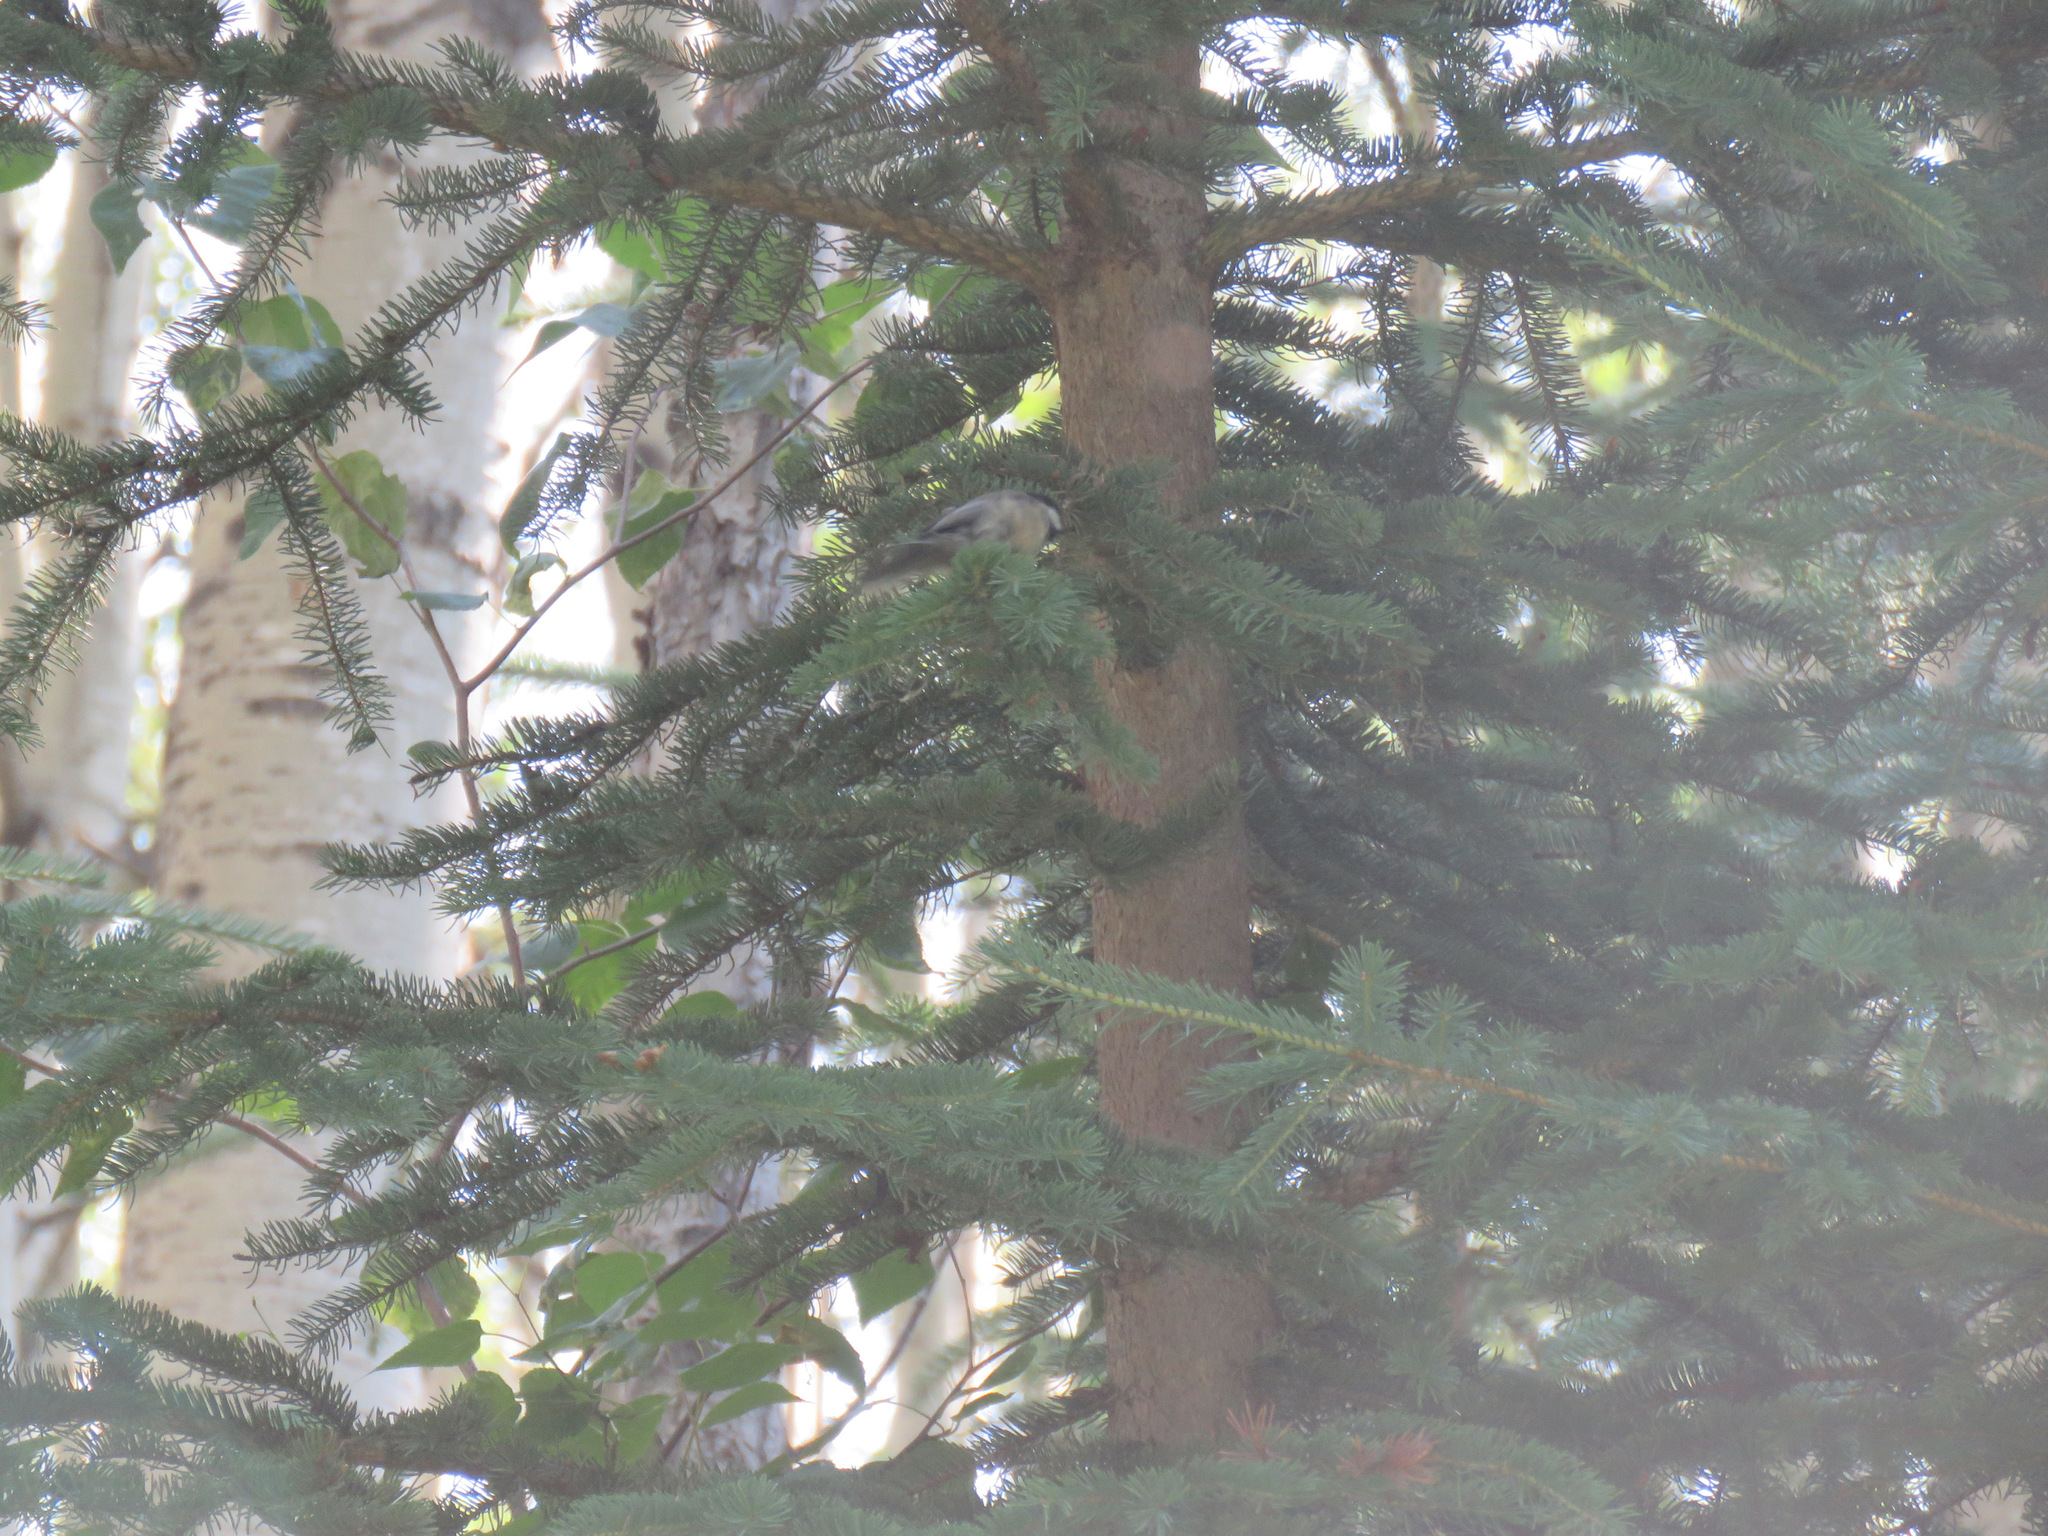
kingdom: Animalia
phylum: Chordata
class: Aves
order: Passeriformes
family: Paridae
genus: Poecile
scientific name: Poecile atricapillus
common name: Black-capped chickadee
